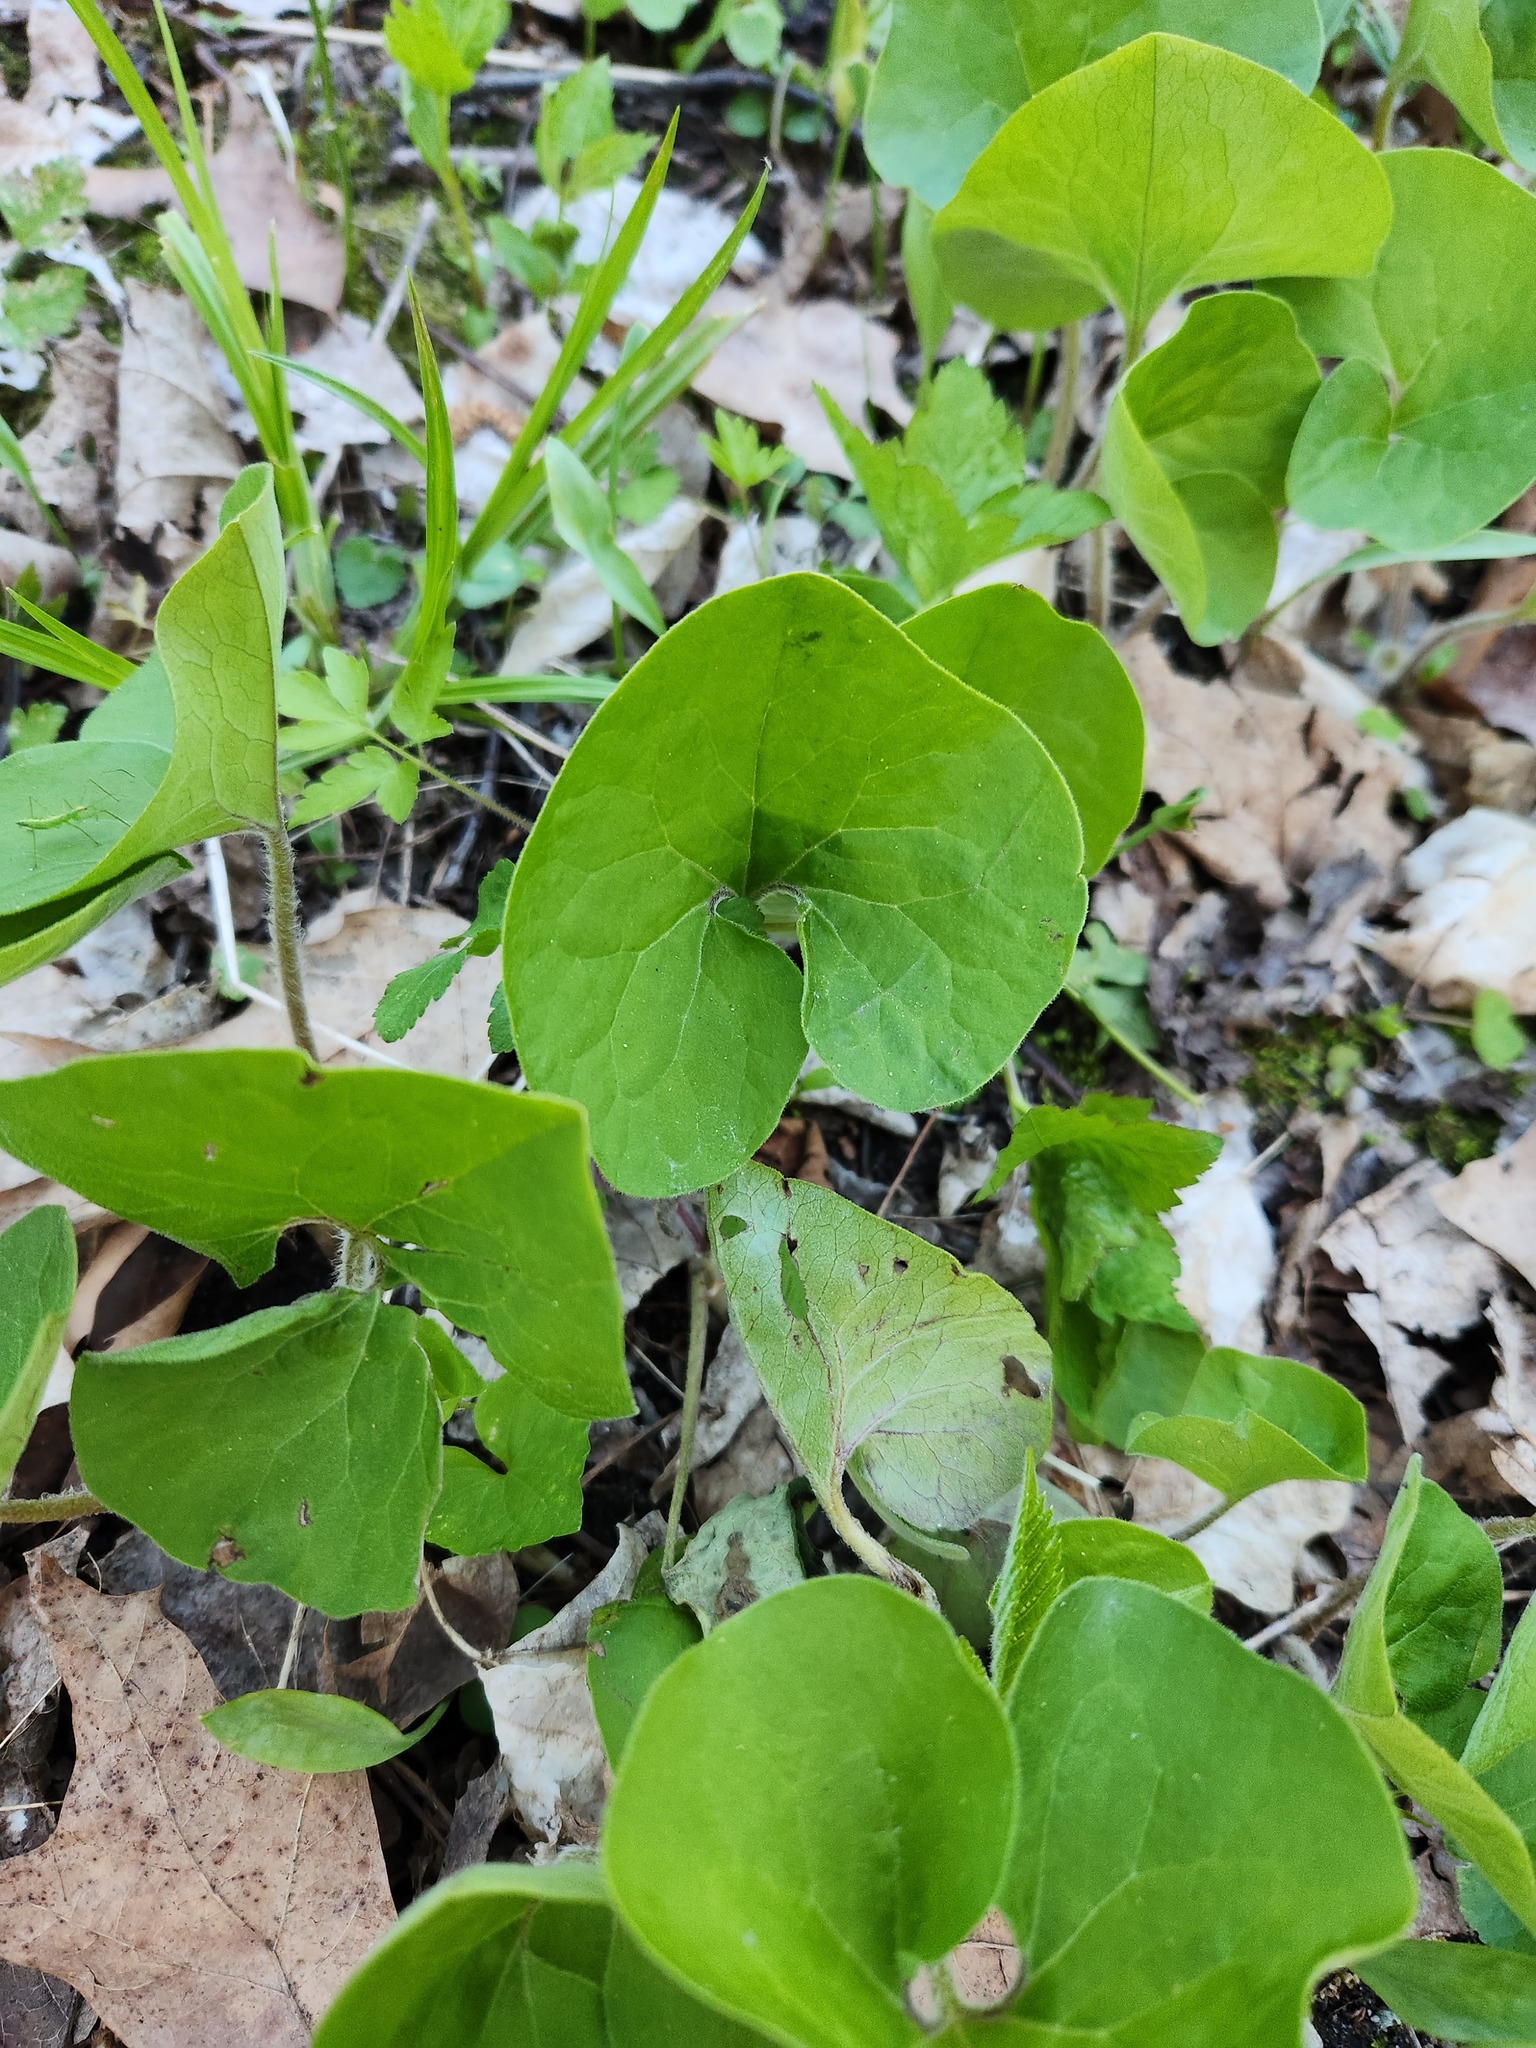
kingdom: Plantae
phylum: Tracheophyta
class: Magnoliopsida
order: Piperales
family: Aristolochiaceae
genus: Asarum
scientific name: Asarum canadense
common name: Wild ginger
